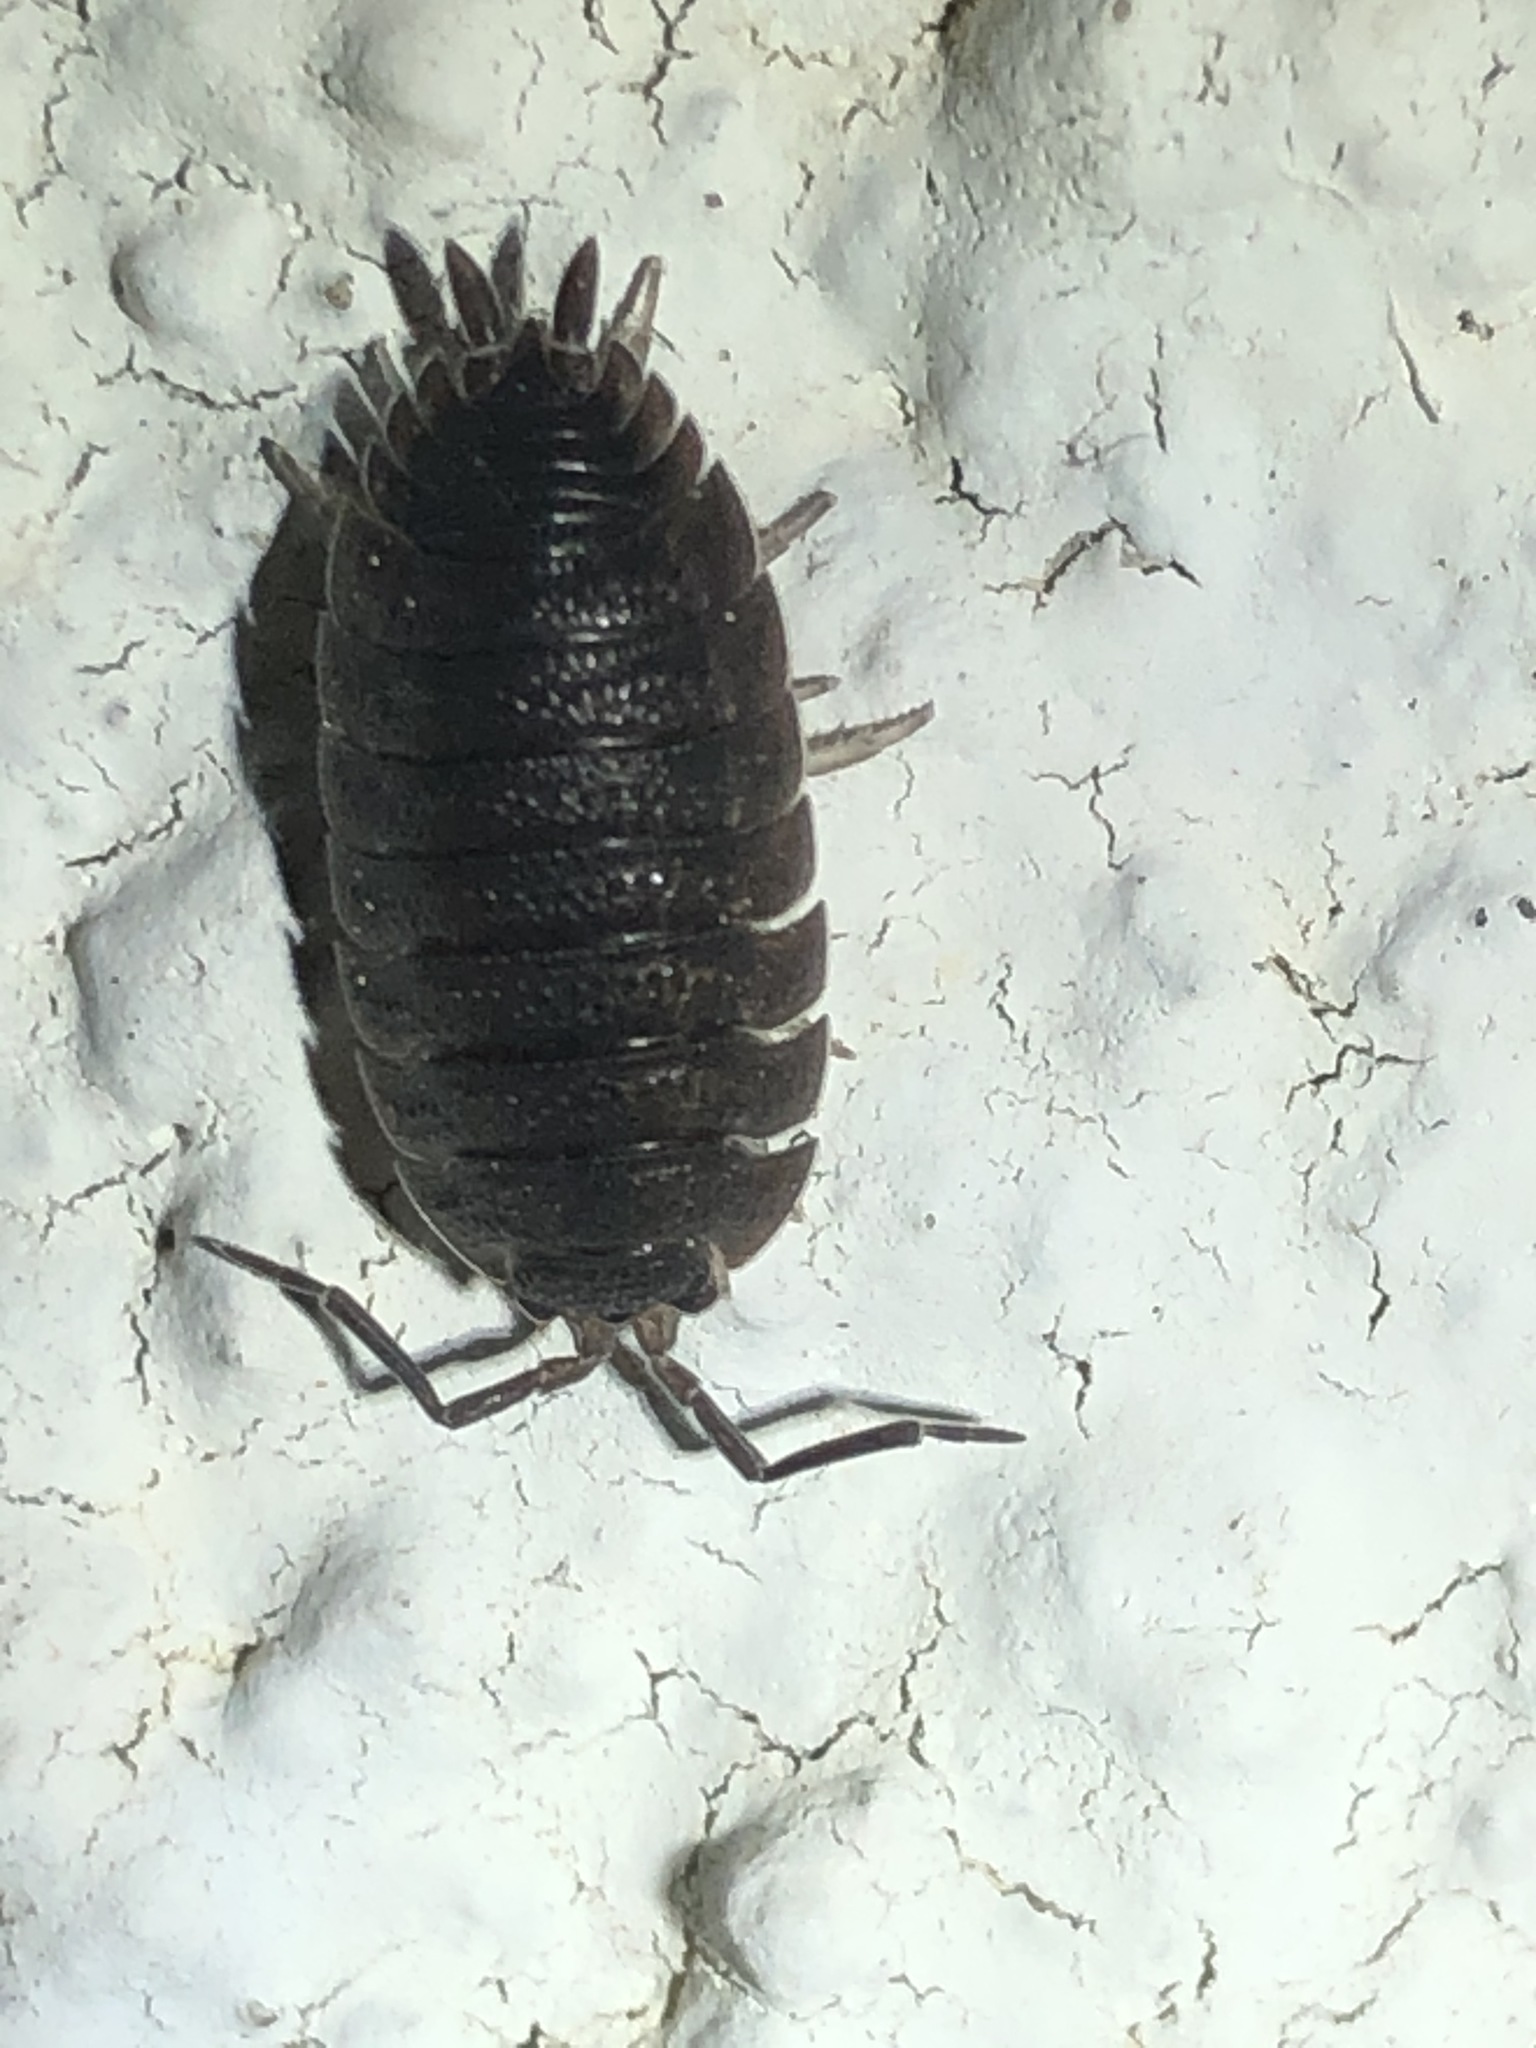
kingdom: Animalia
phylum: Arthropoda
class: Malacostraca
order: Isopoda
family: Porcellionidae
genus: Porcellio
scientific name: Porcellio scaber
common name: Common rough woodlouse
